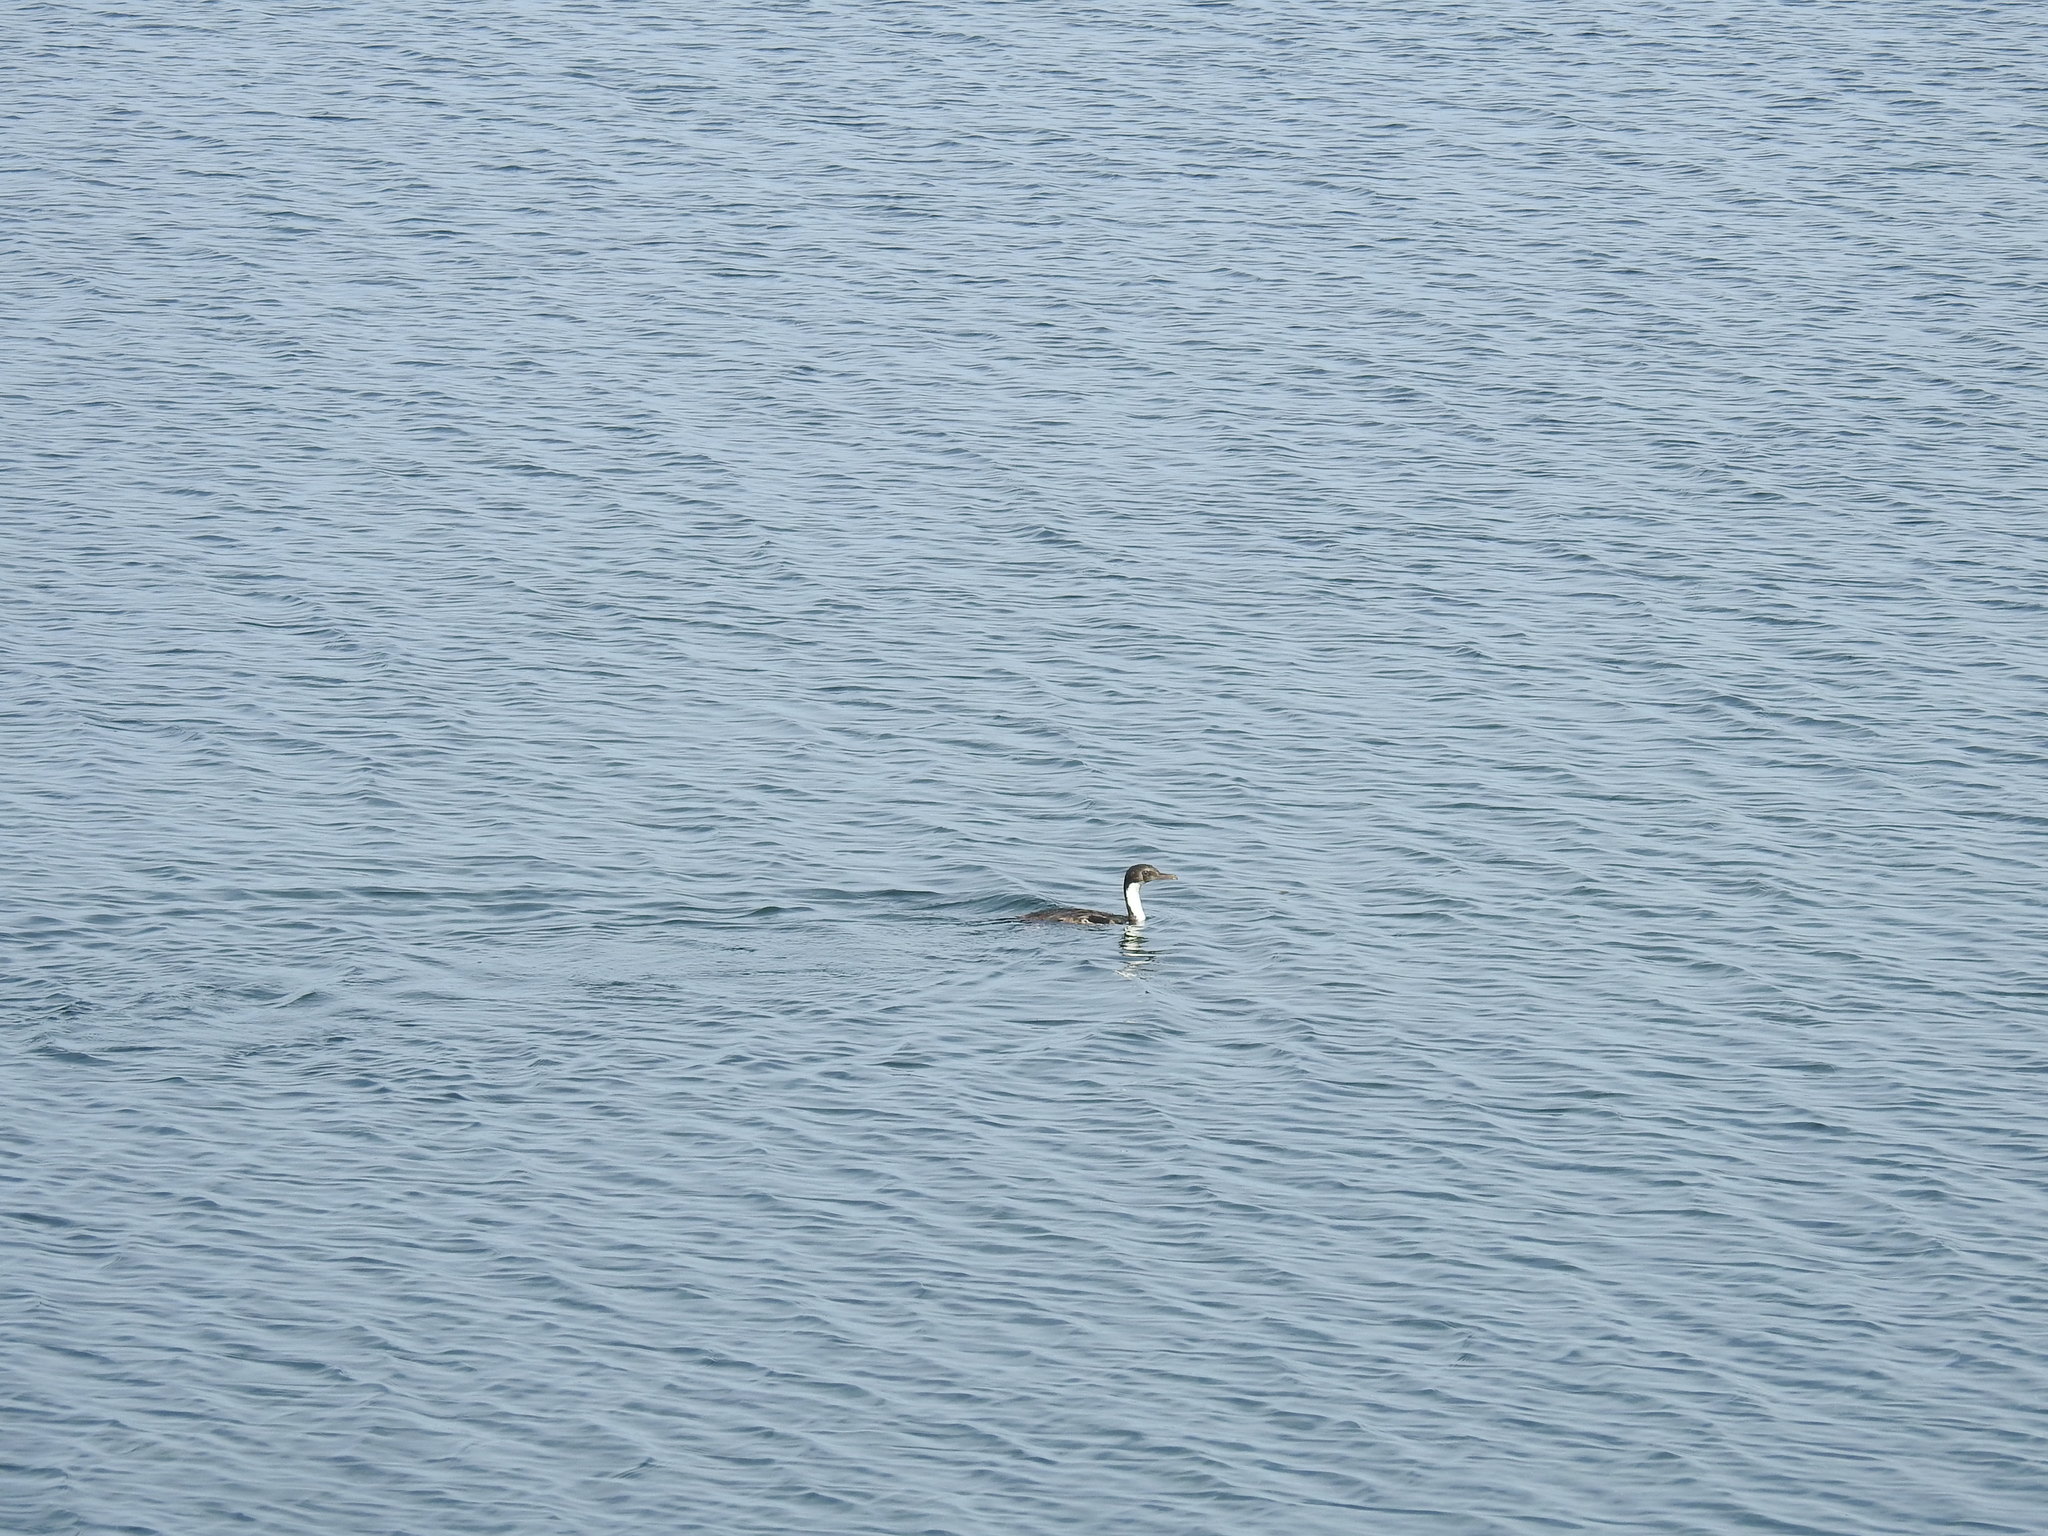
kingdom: Animalia
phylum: Chordata
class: Aves
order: Suliformes
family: Phalacrocoracidae
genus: Leucocarbo
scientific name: Leucocarbo atriceps
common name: Imperial shag
